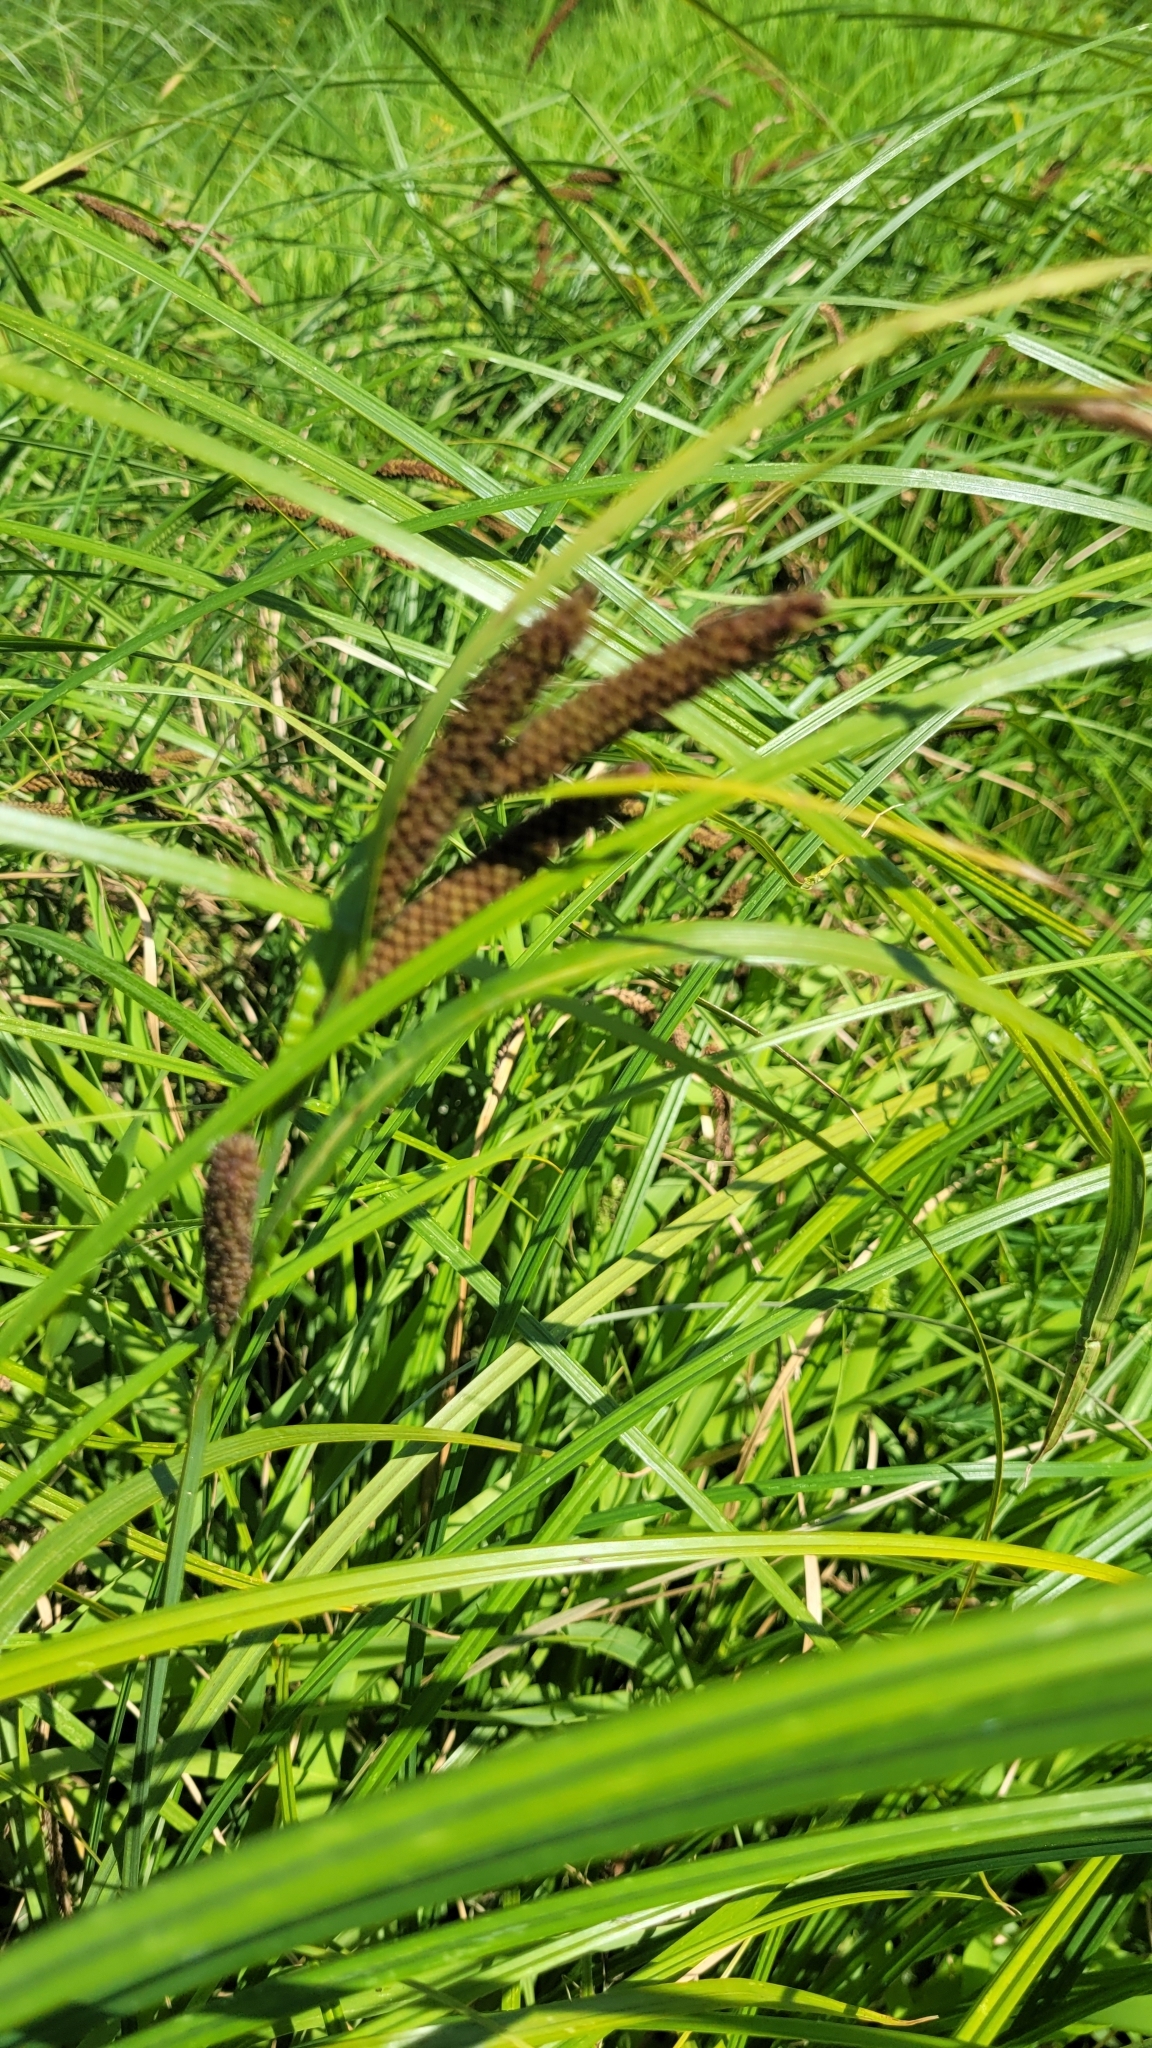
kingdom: Plantae
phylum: Tracheophyta
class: Liliopsida
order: Poales
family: Cyperaceae
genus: Carex
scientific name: Carex acuta
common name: Slender tufted-sedge
